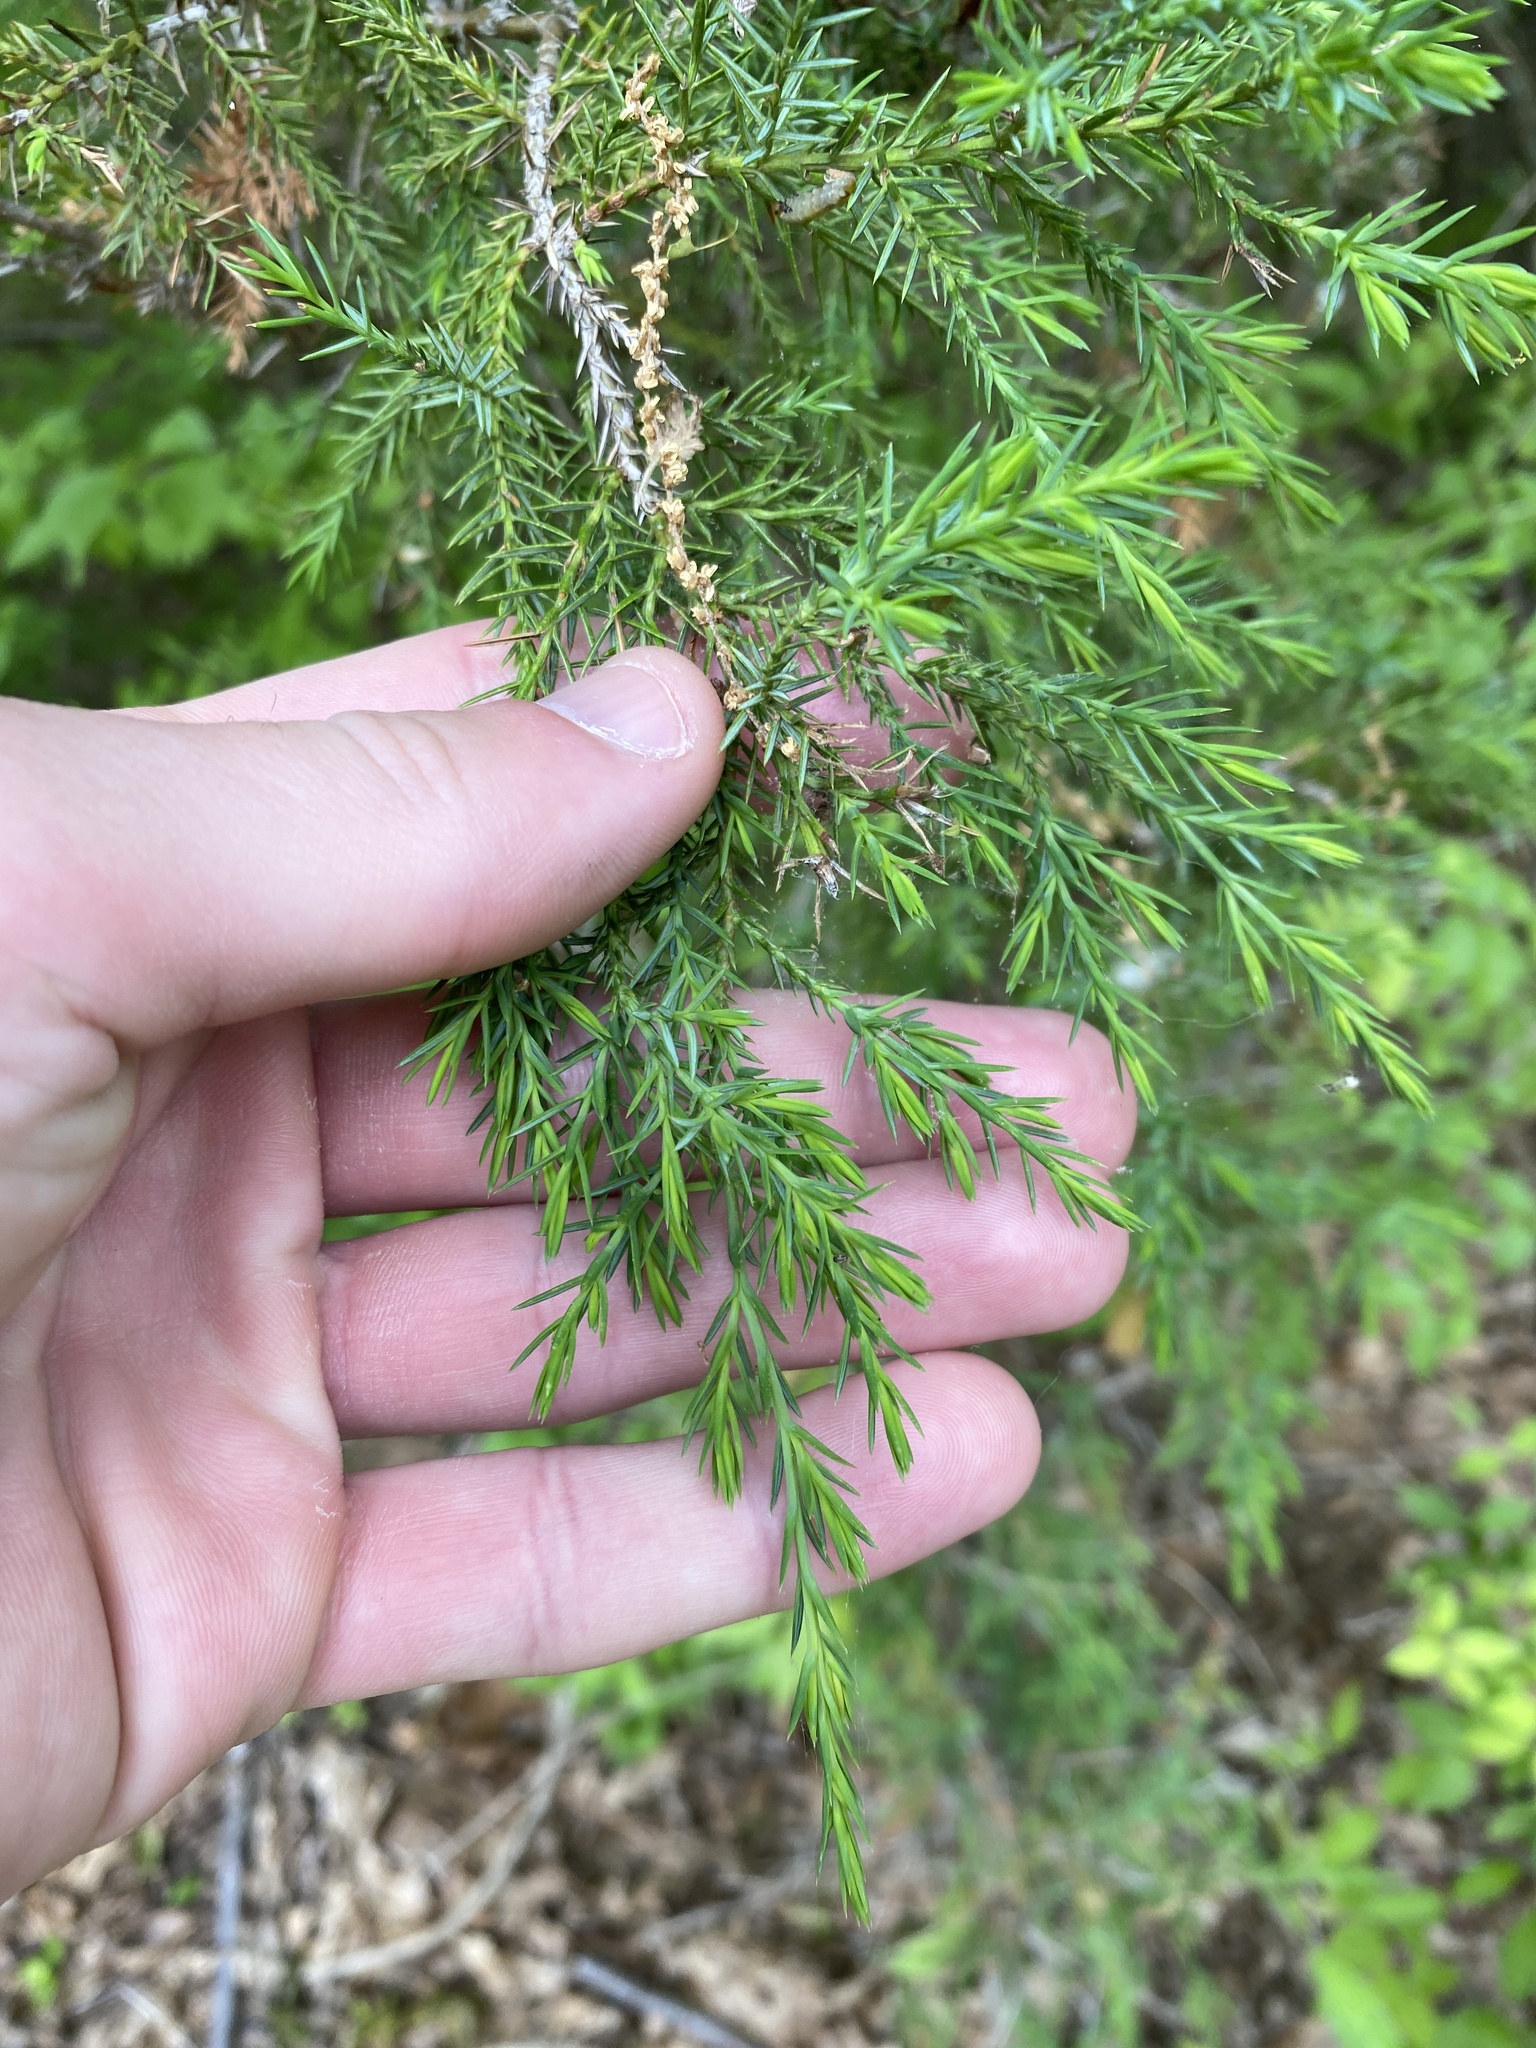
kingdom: Plantae
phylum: Tracheophyta
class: Pinopsida
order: Pinales
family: Cupressaceae
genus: Juniperus
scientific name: Juniperus virginiana
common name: Red juniper
